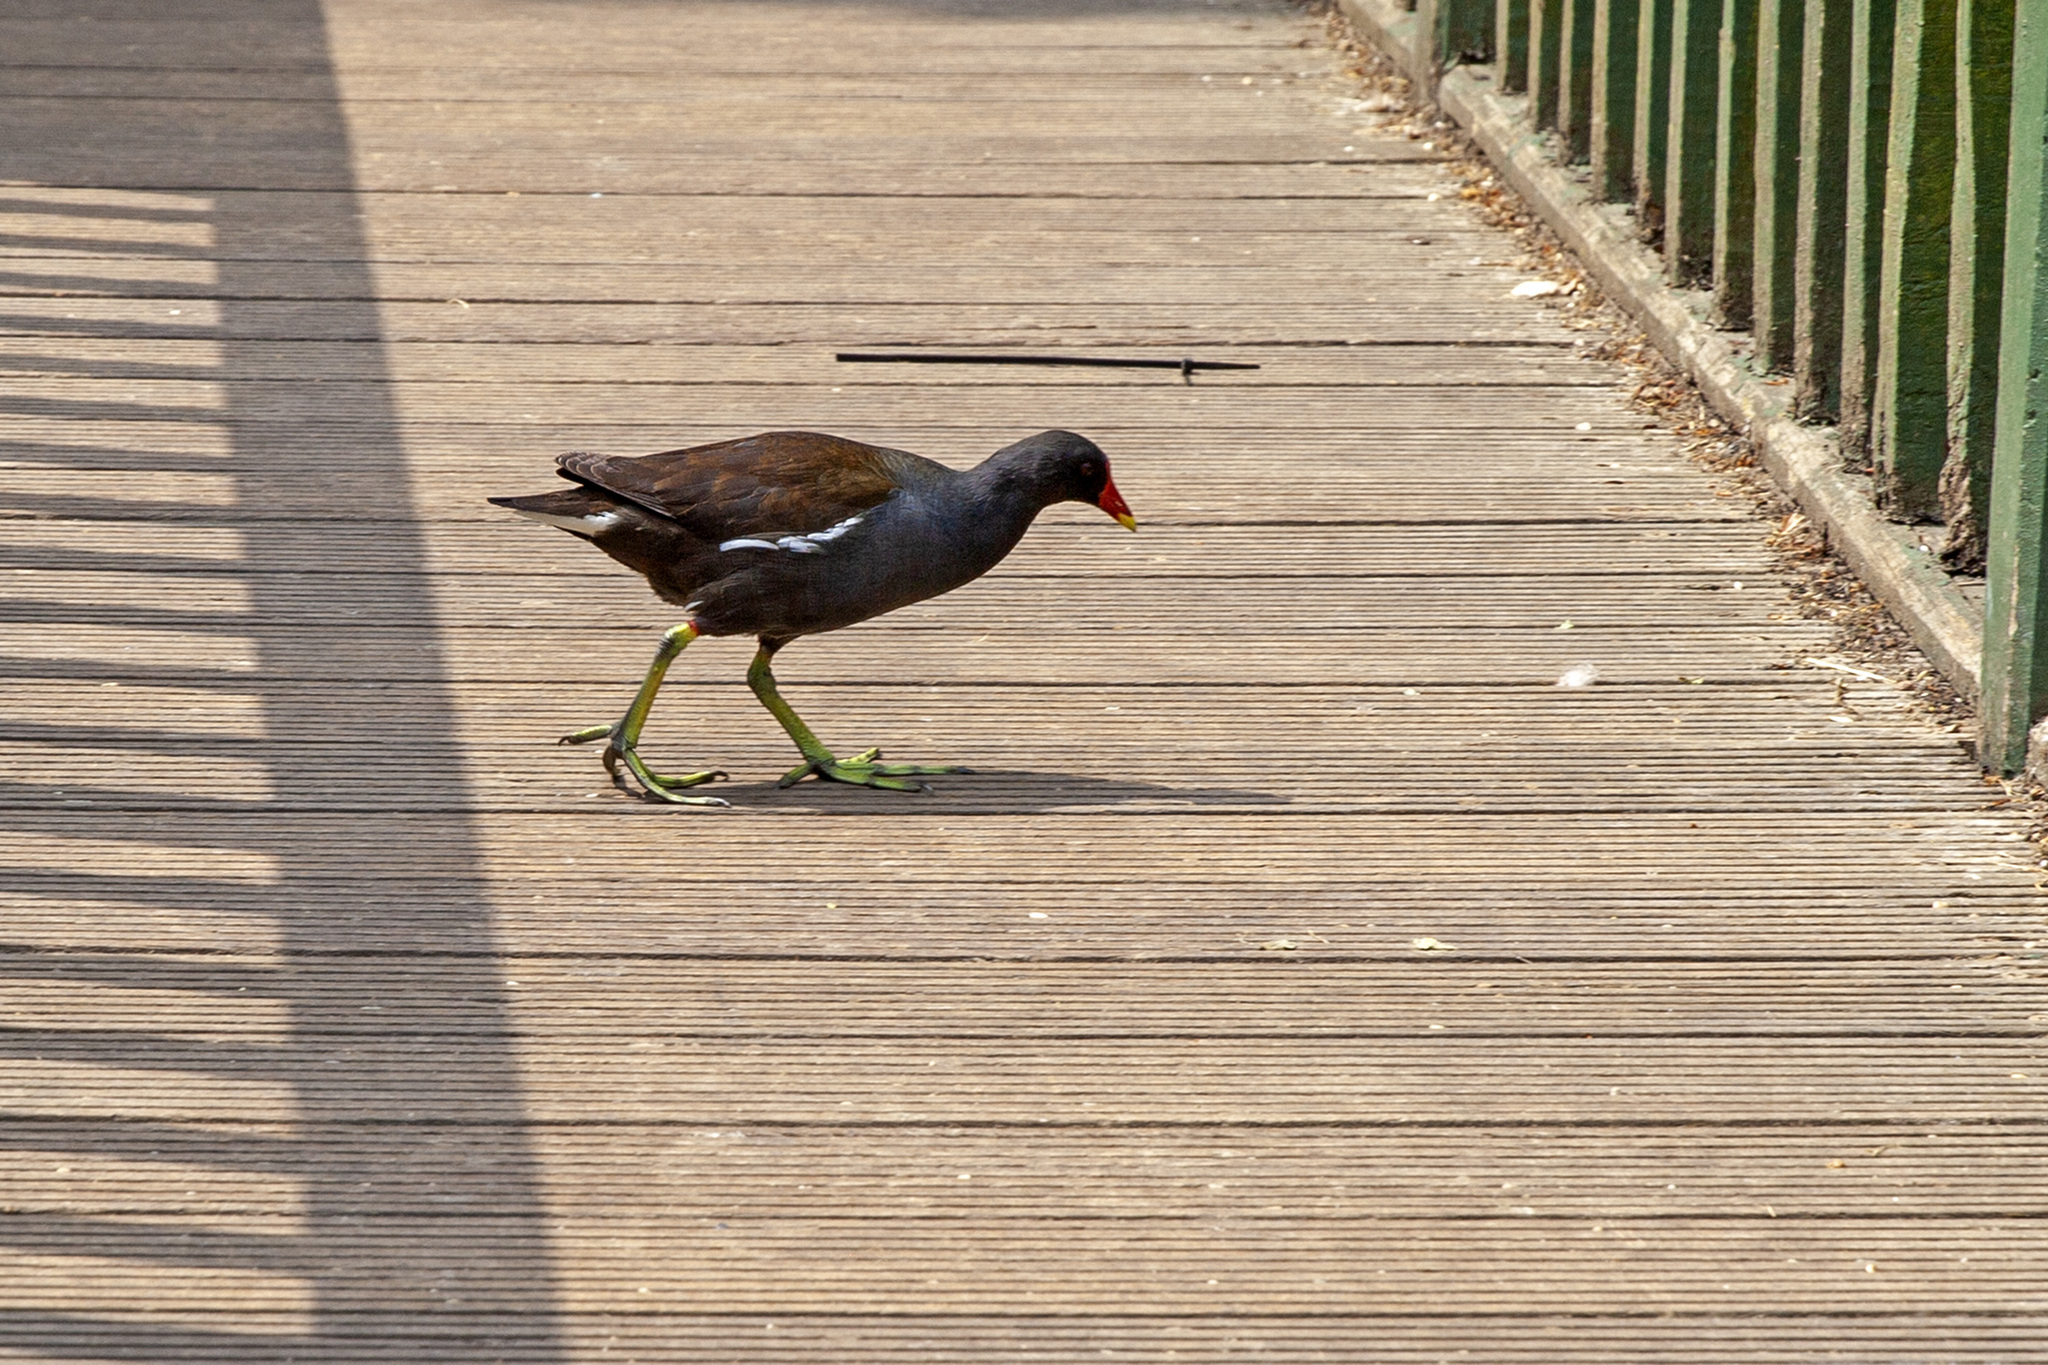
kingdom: Animalia
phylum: Chordata
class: Aves
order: Gruiformes
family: Rallidae
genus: Gallinula
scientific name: Gallinula chloropus
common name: Common moorhen
